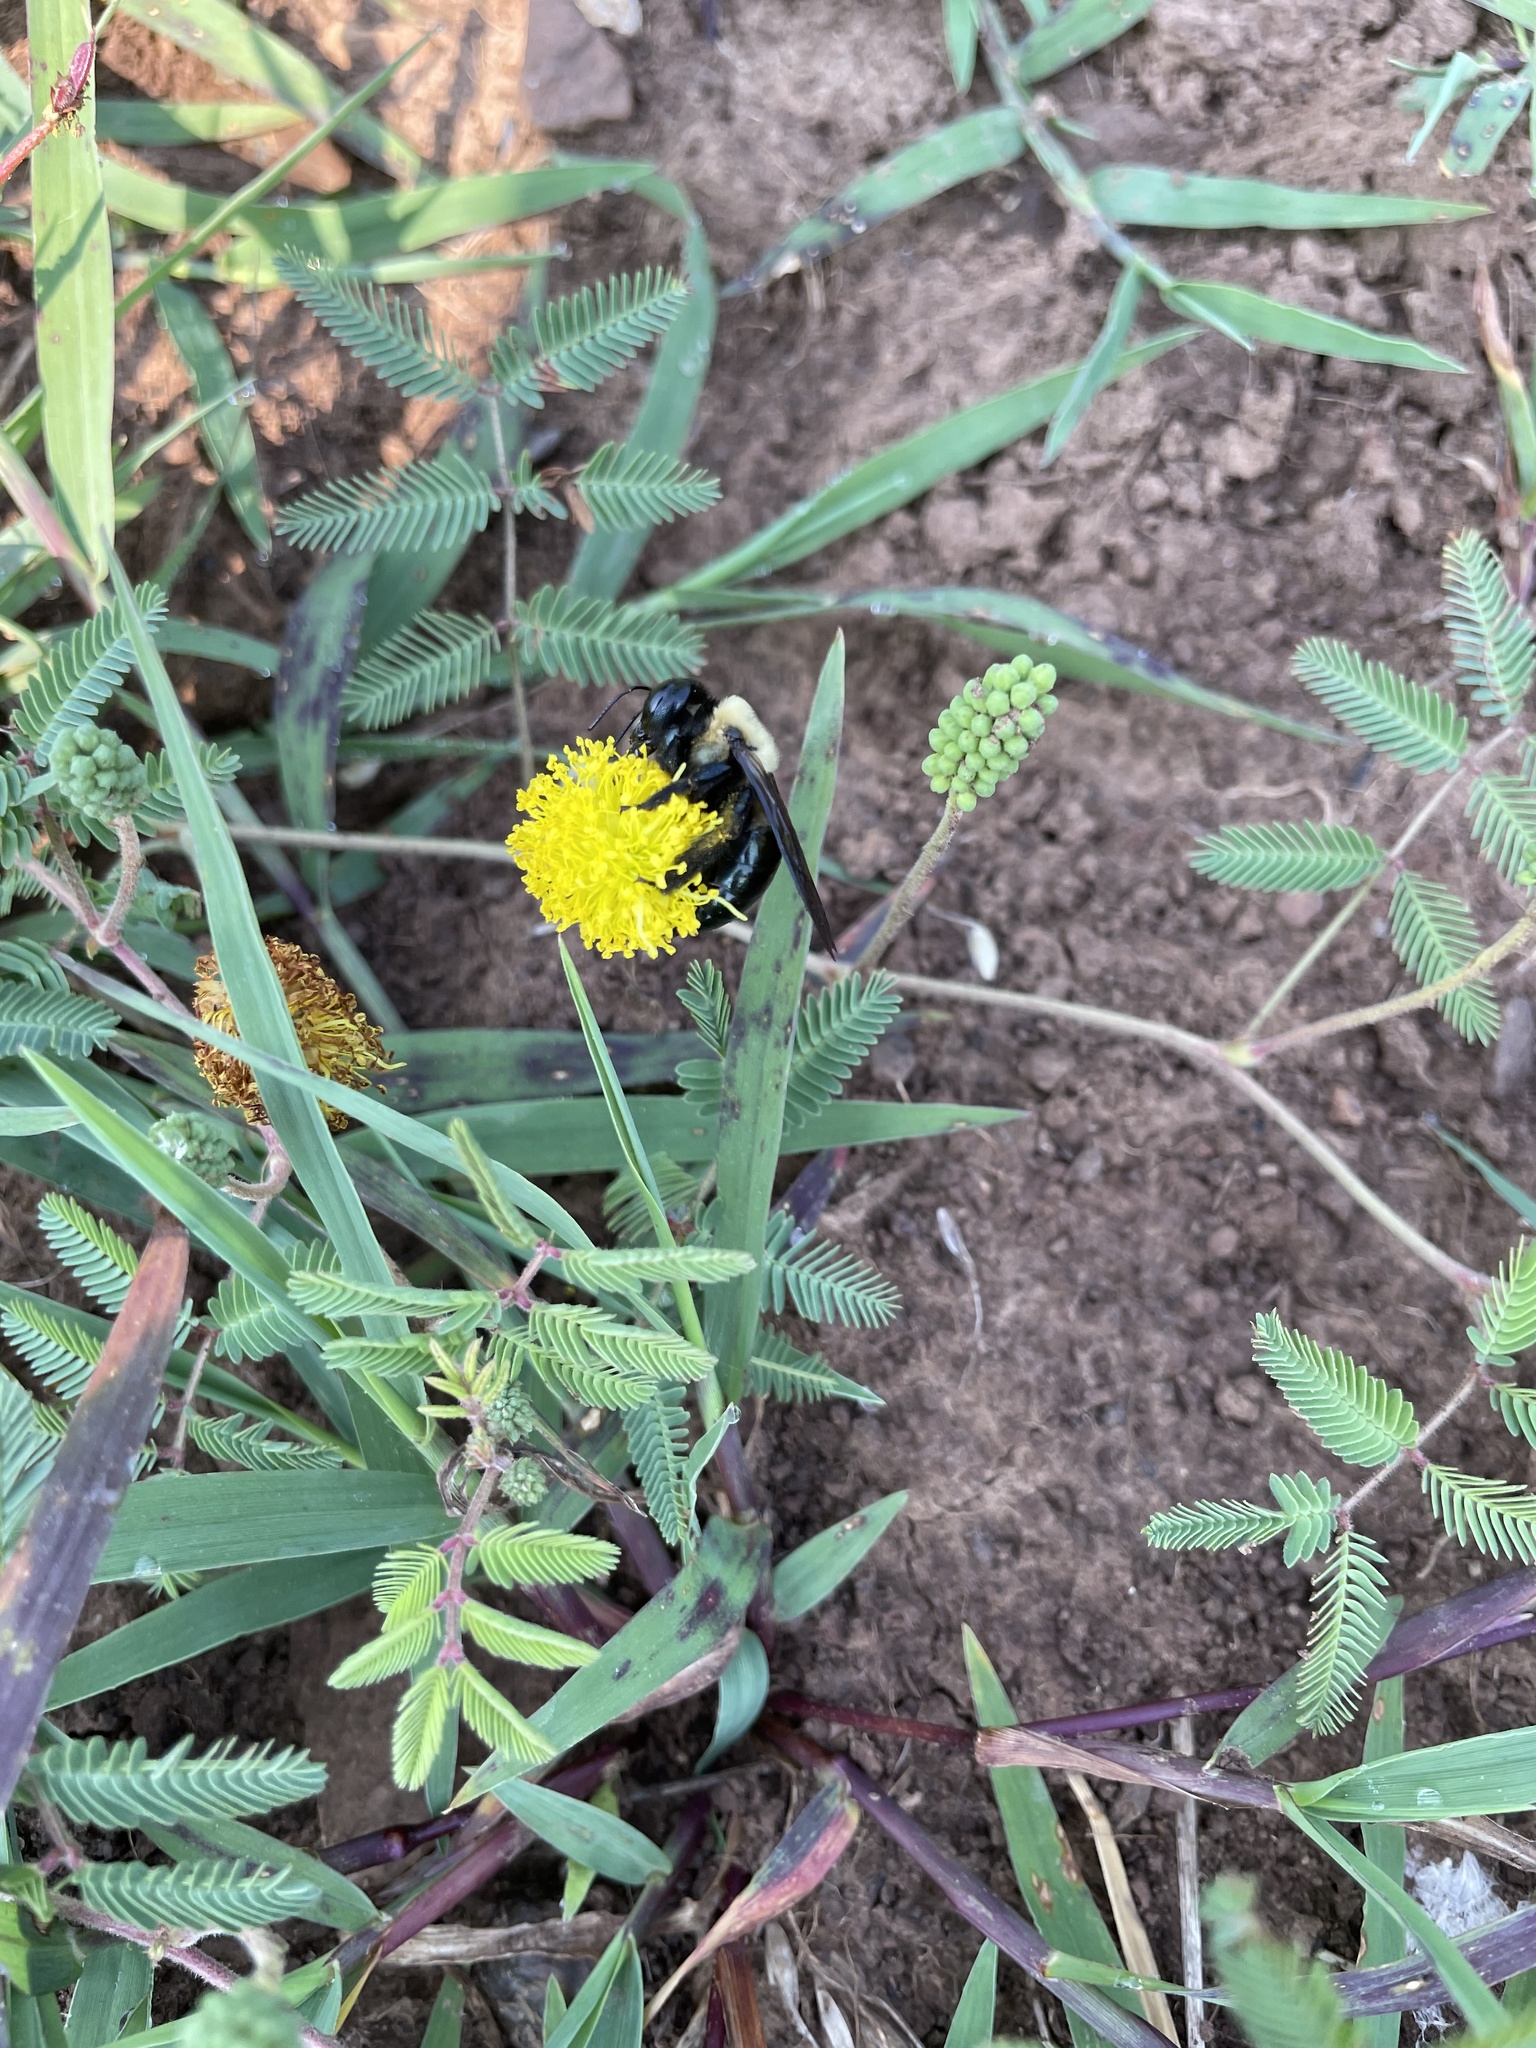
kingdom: Animalia
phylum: Arthropoda
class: Insecta
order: Hymenoptera
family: Apidae
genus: Xylocopa
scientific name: Xylocopa virginica
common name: Carpenter bee
